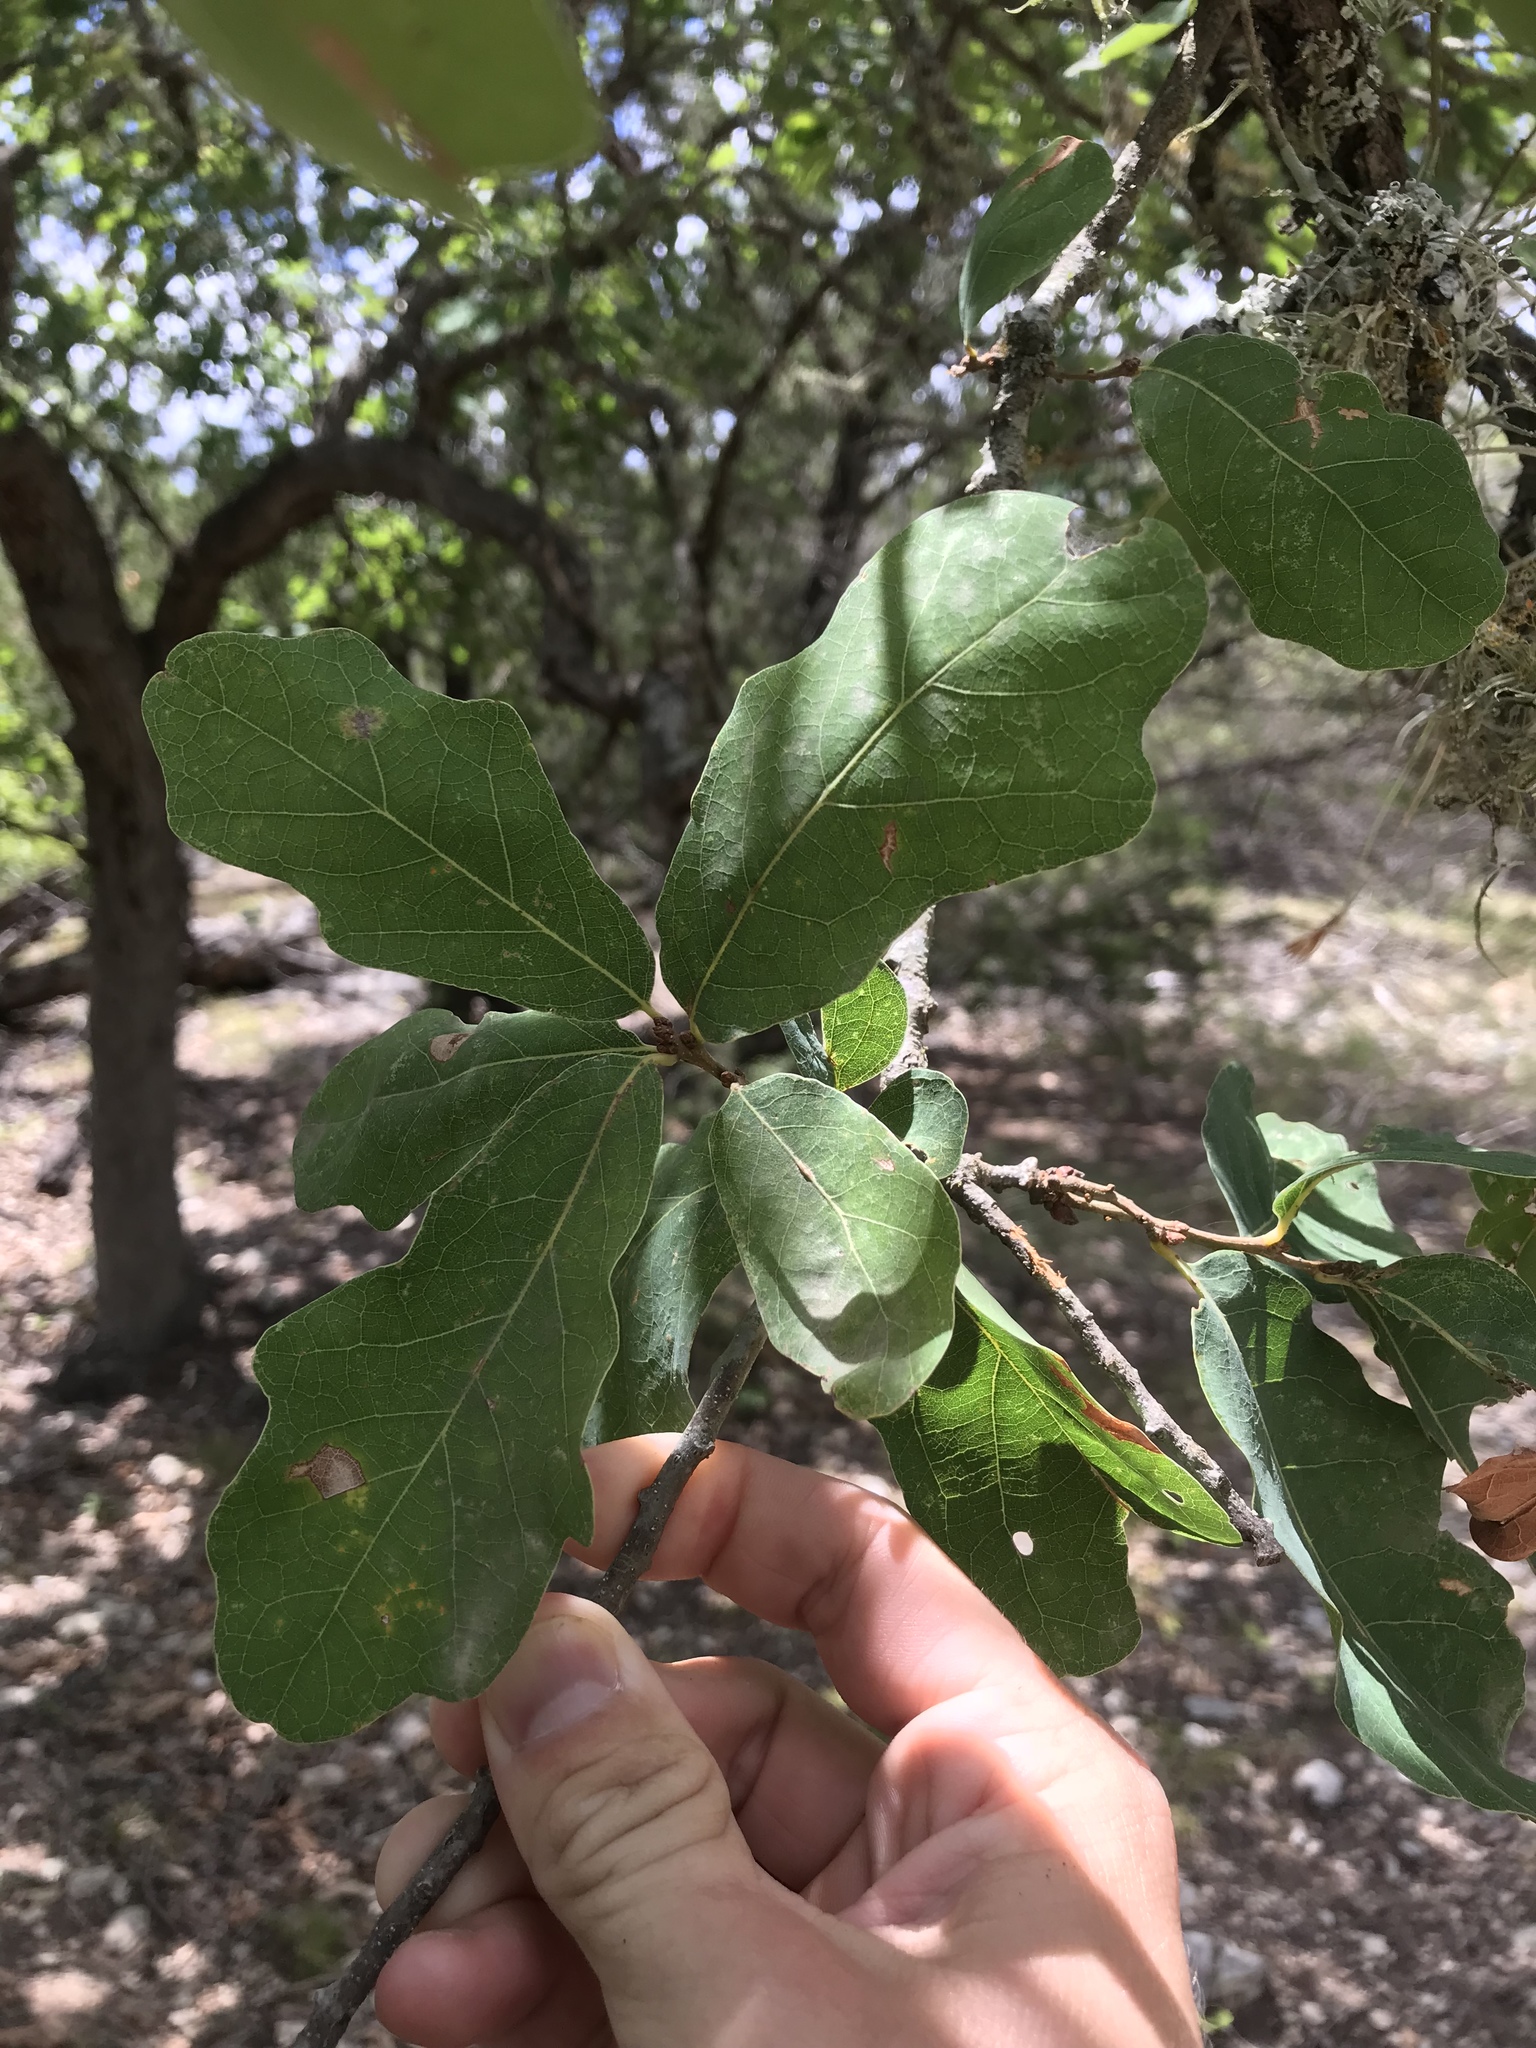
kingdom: Plantae
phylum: Tracheophyta
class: Magnoliopsida
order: Fagales
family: Fagaceae
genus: Quercus
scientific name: Quercus laceyi
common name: Lacey oak
